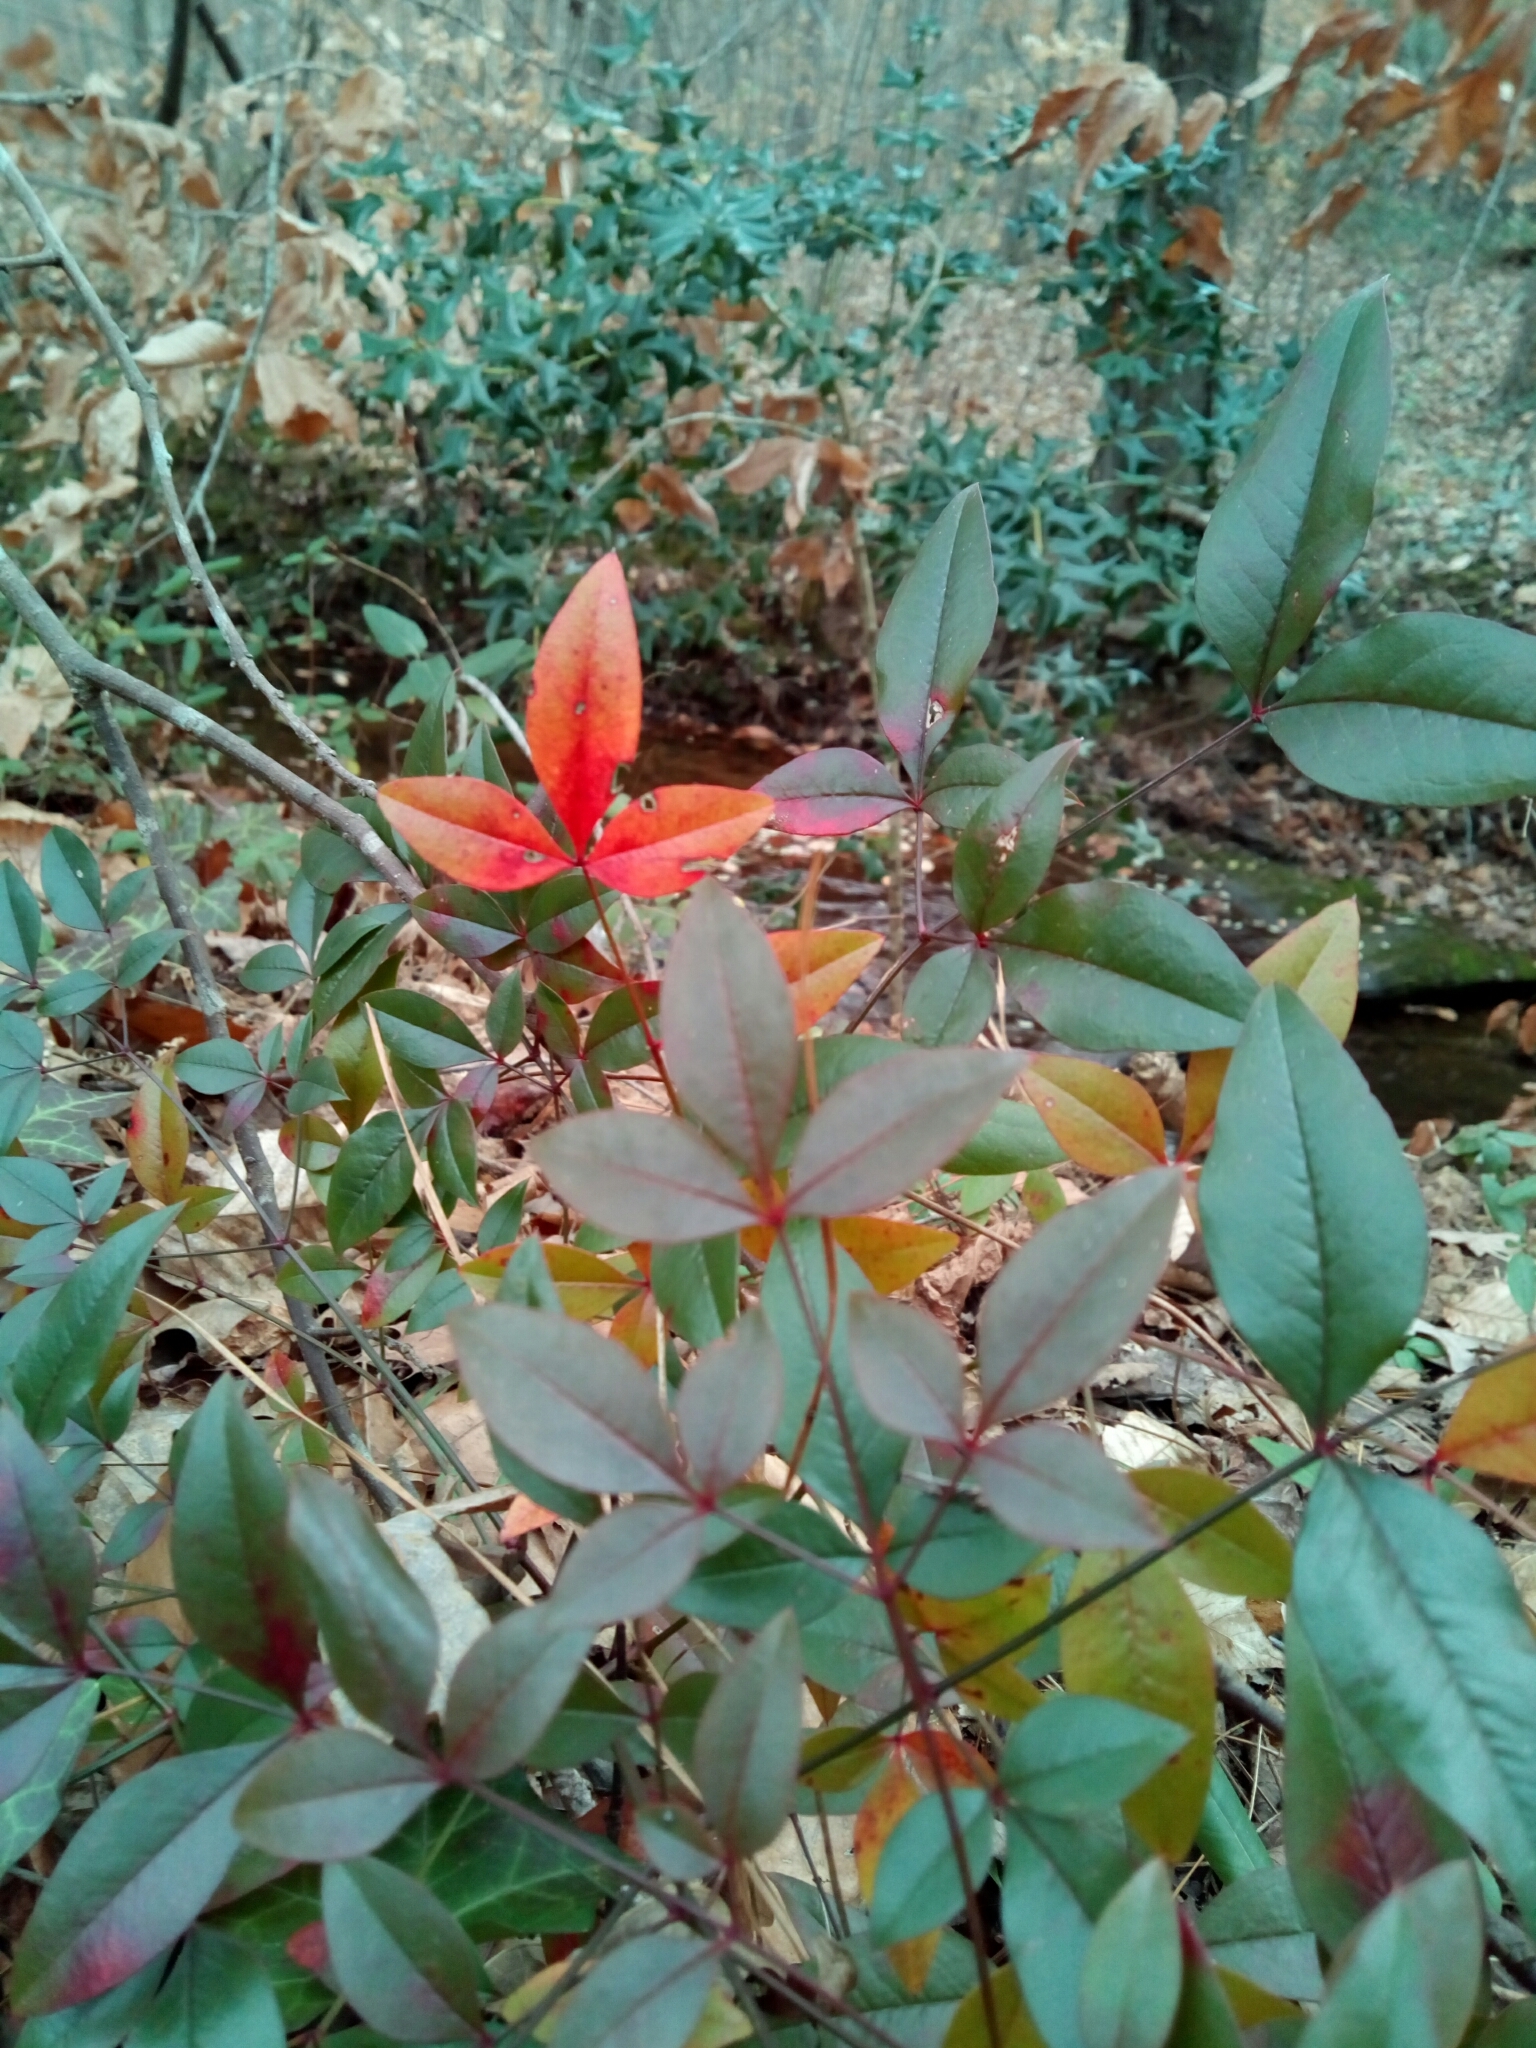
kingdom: Plantae
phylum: Tracheophyta
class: Magnoliopsida
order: Ranunculales
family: Berberidaceae
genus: Nandina
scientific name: Nandina domestica
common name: Sacred bamboo
